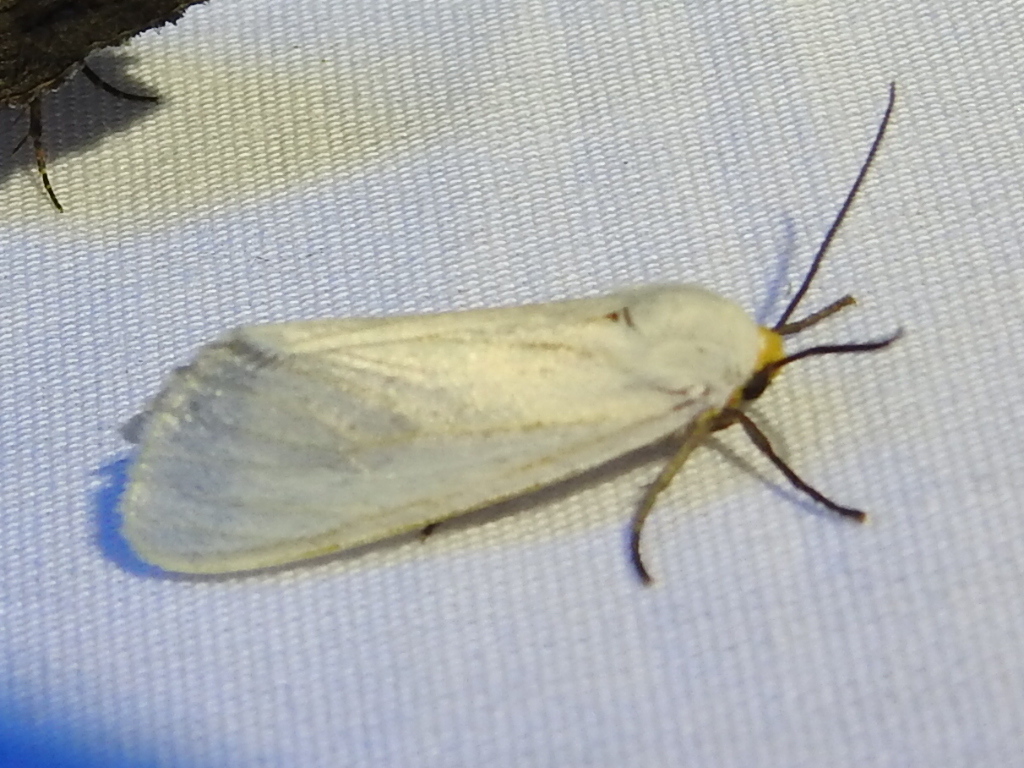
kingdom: Animalia
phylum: Arthropoda
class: Insecta
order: Lepidoptera
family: Erebidae
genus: Pygarctia
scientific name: Pygarctia flavidorsalis
